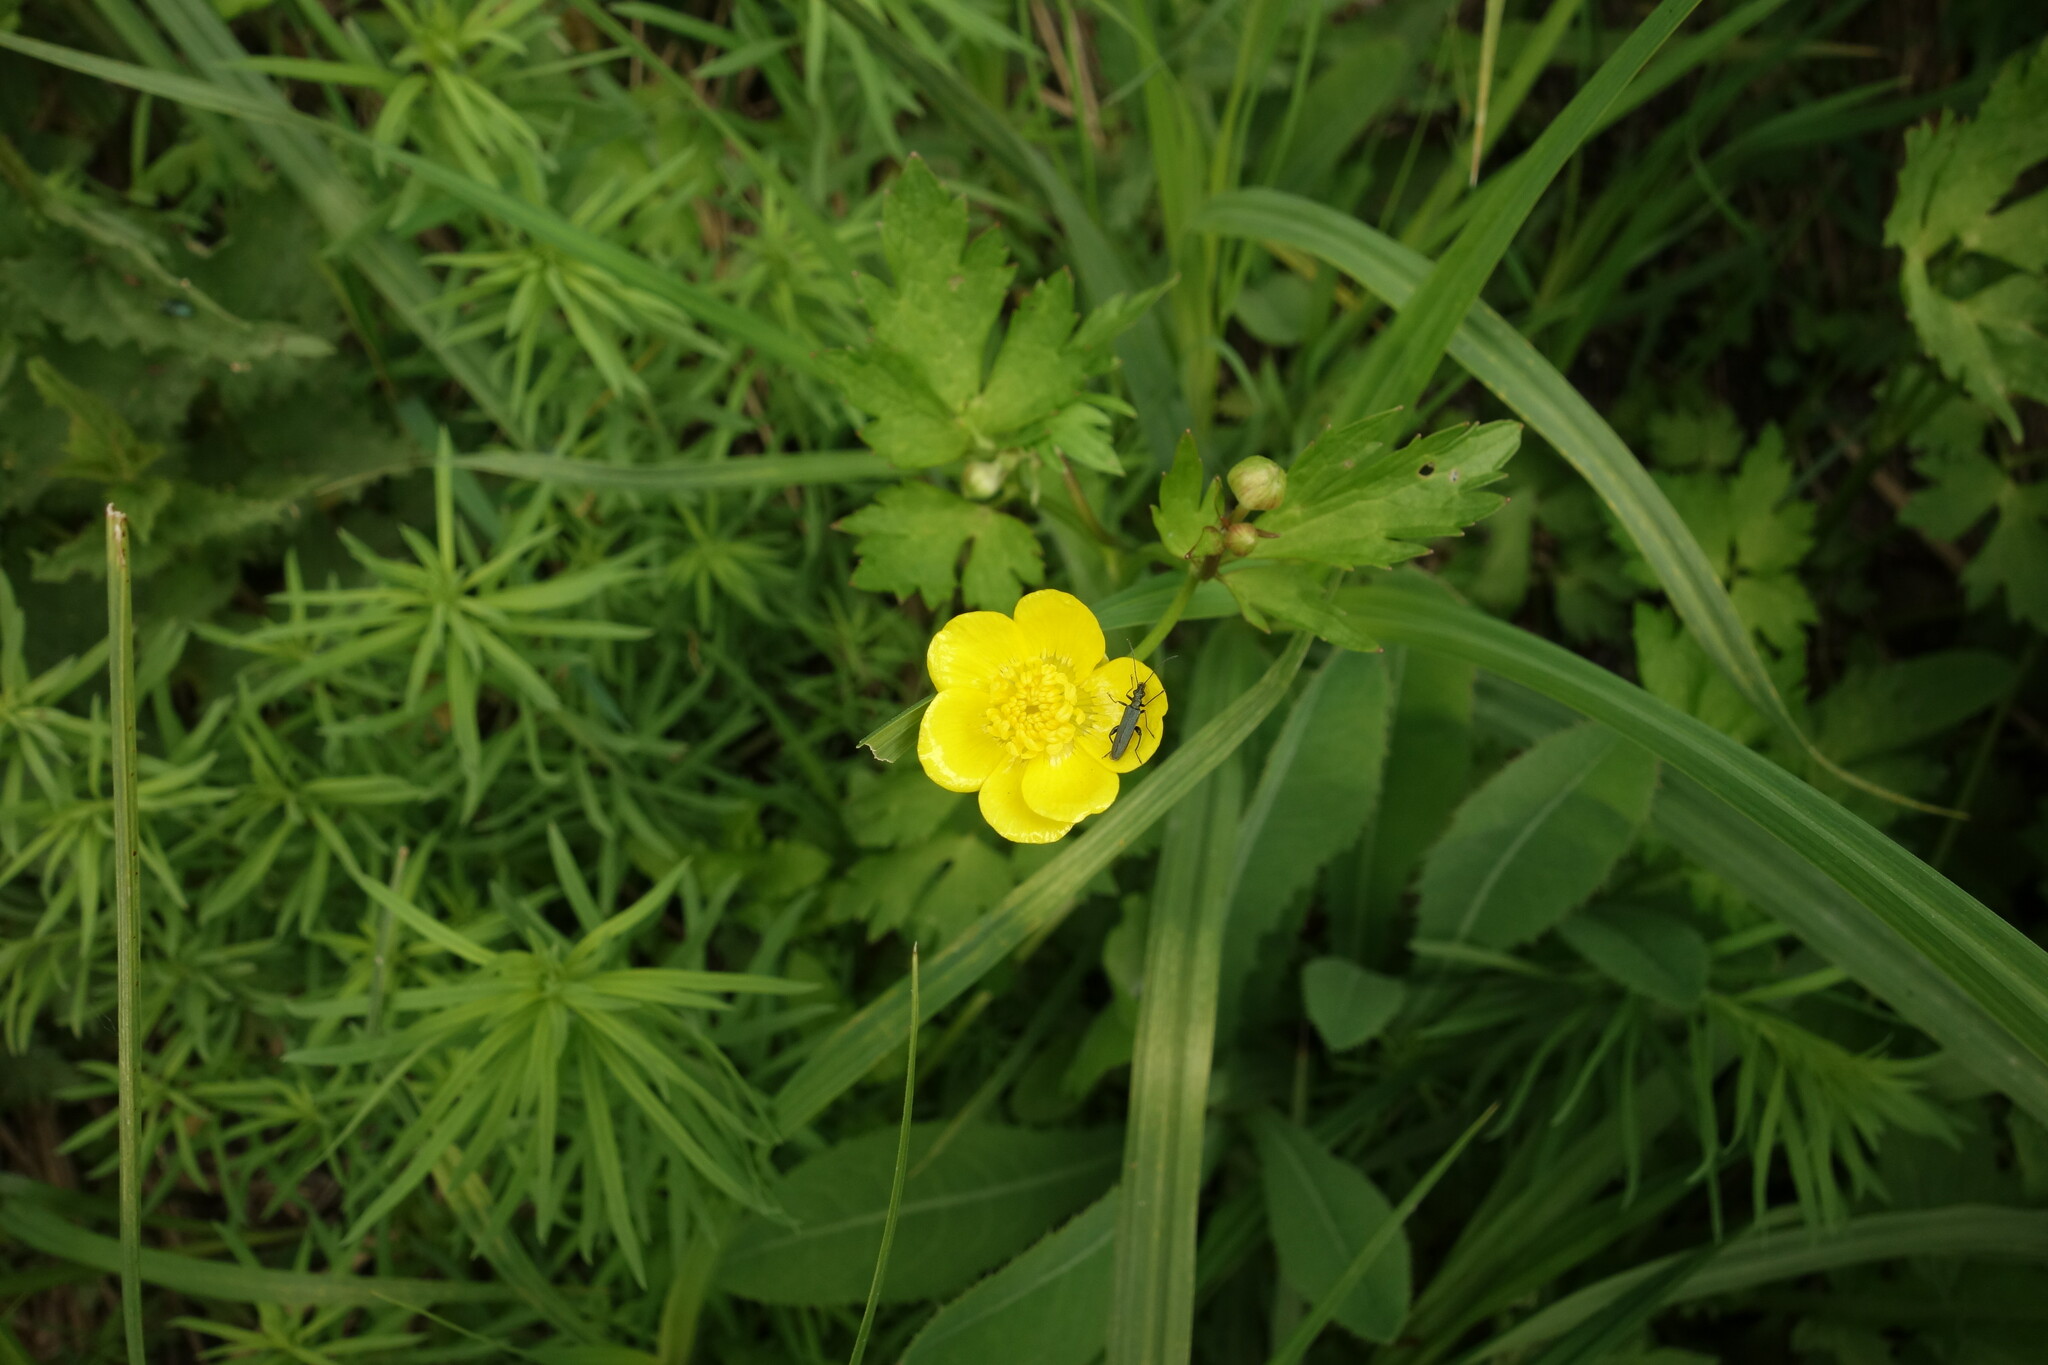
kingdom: Plantae
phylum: Tracheophyta
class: Magnoliopsida
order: Ranunculales
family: Ranunculaceae
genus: Ranunculus
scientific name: Ranunculus repens
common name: Creeping buttercup
